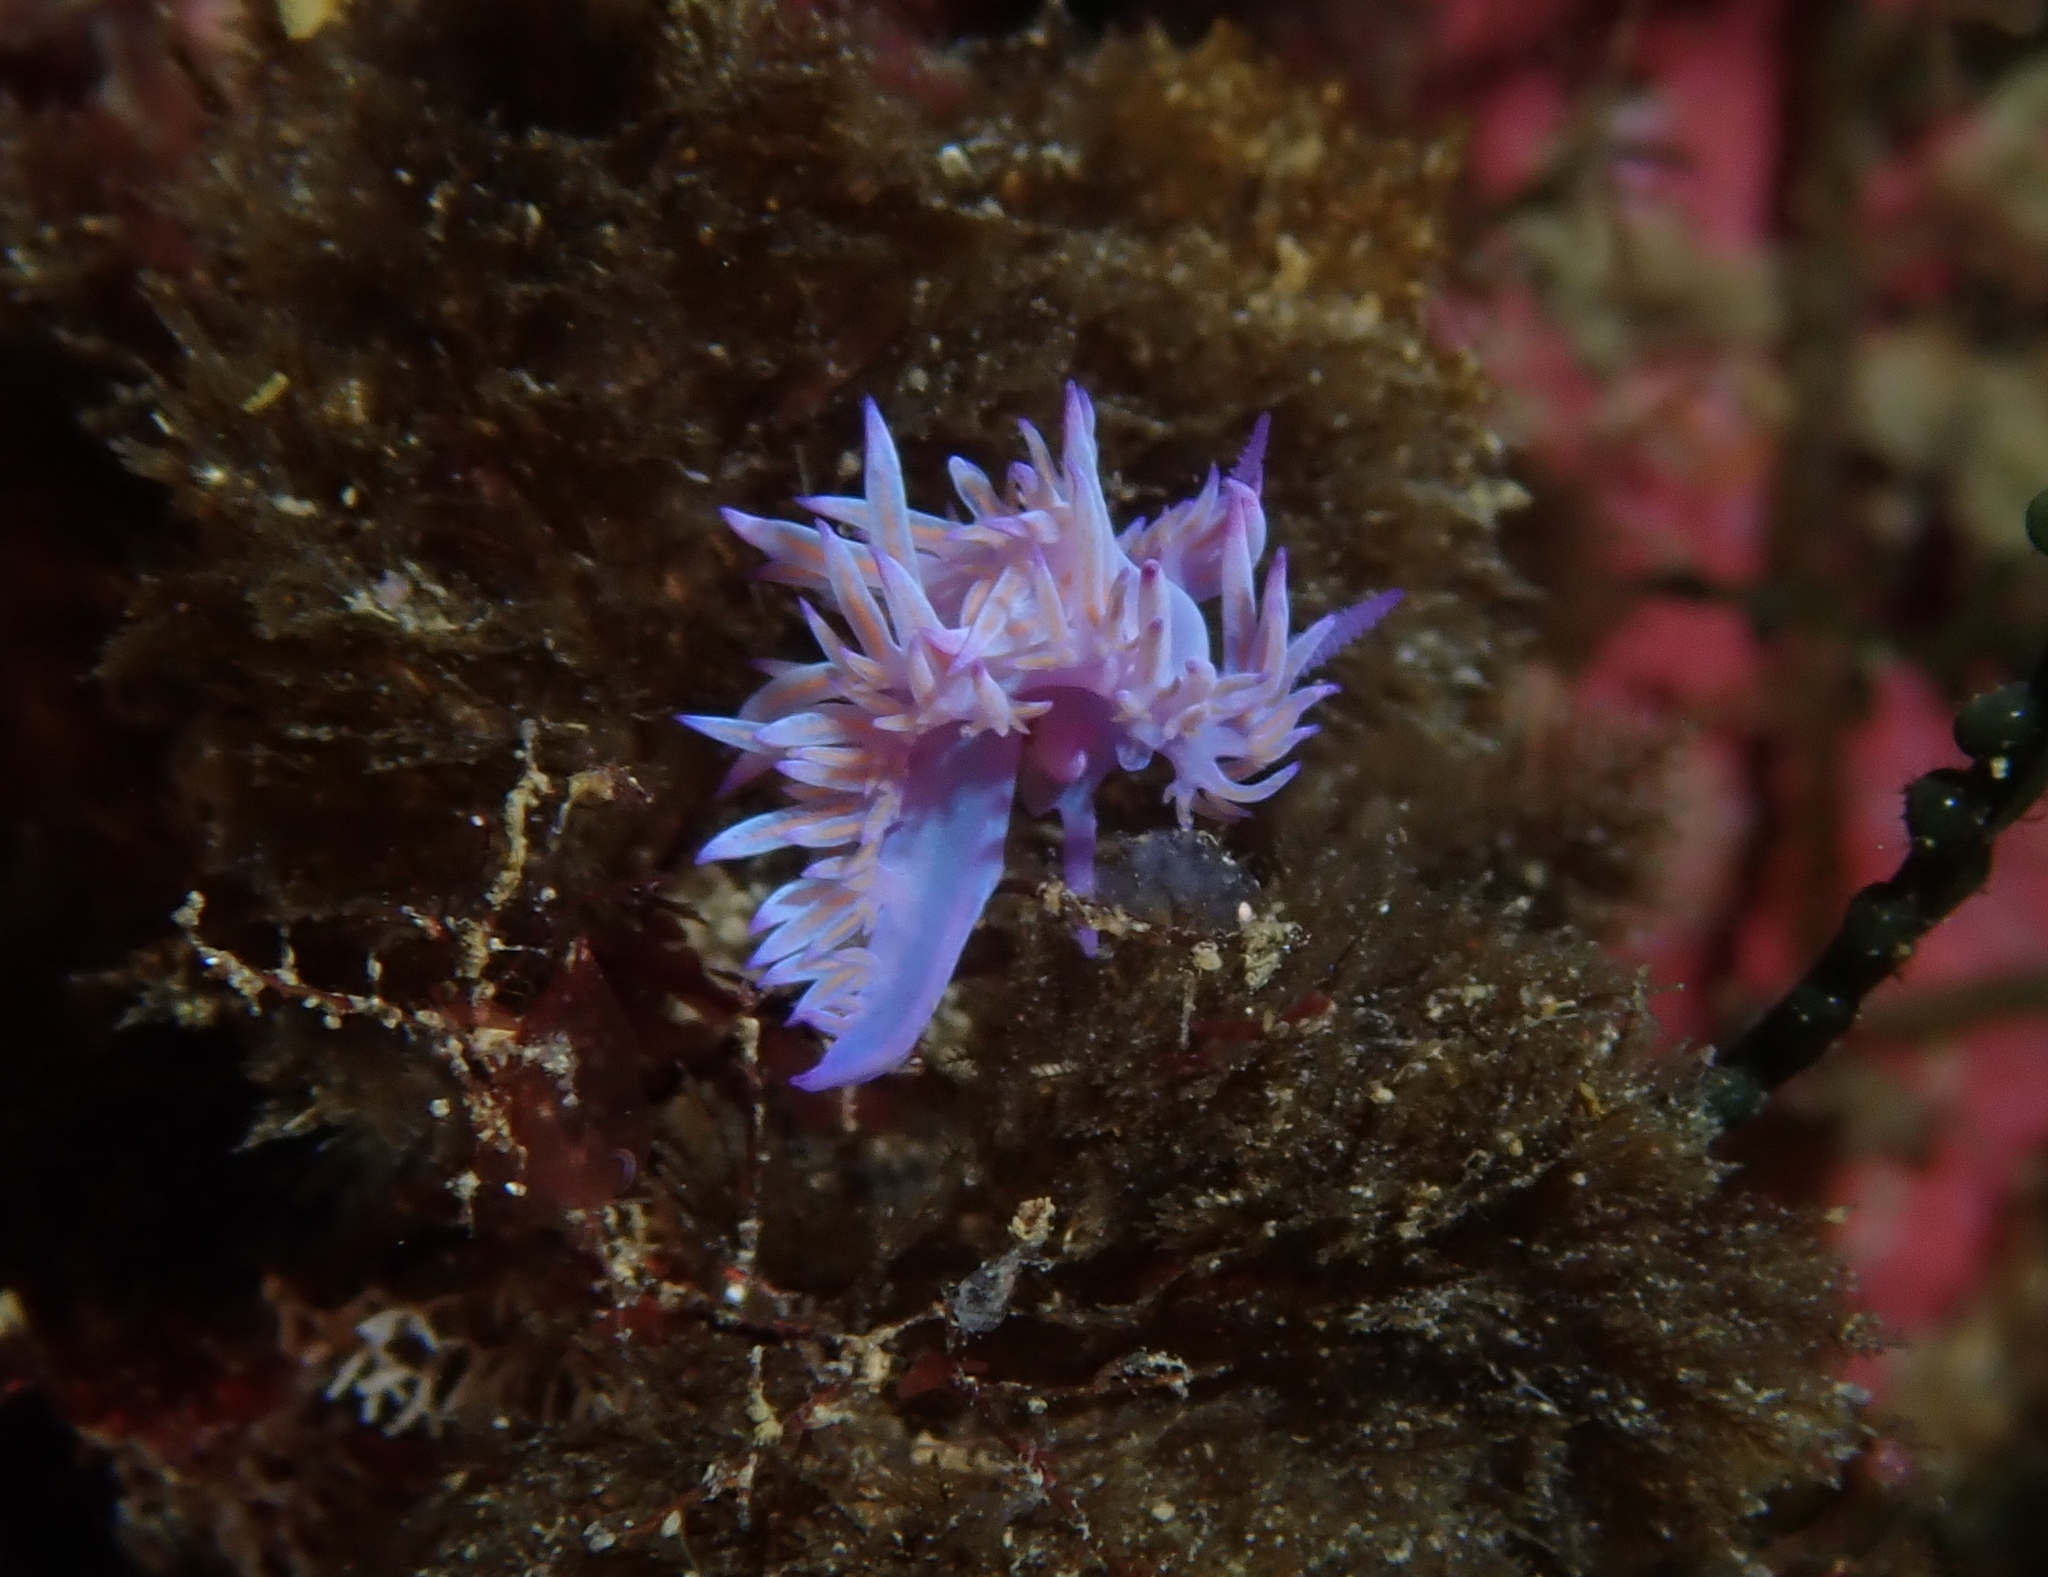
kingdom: Animalia
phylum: Mollusca
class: Gastropoda
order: Nudibranchia
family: Flabellinidae
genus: Flabellina
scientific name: Flabellina affinis
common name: Mediterranean violet aeolid
